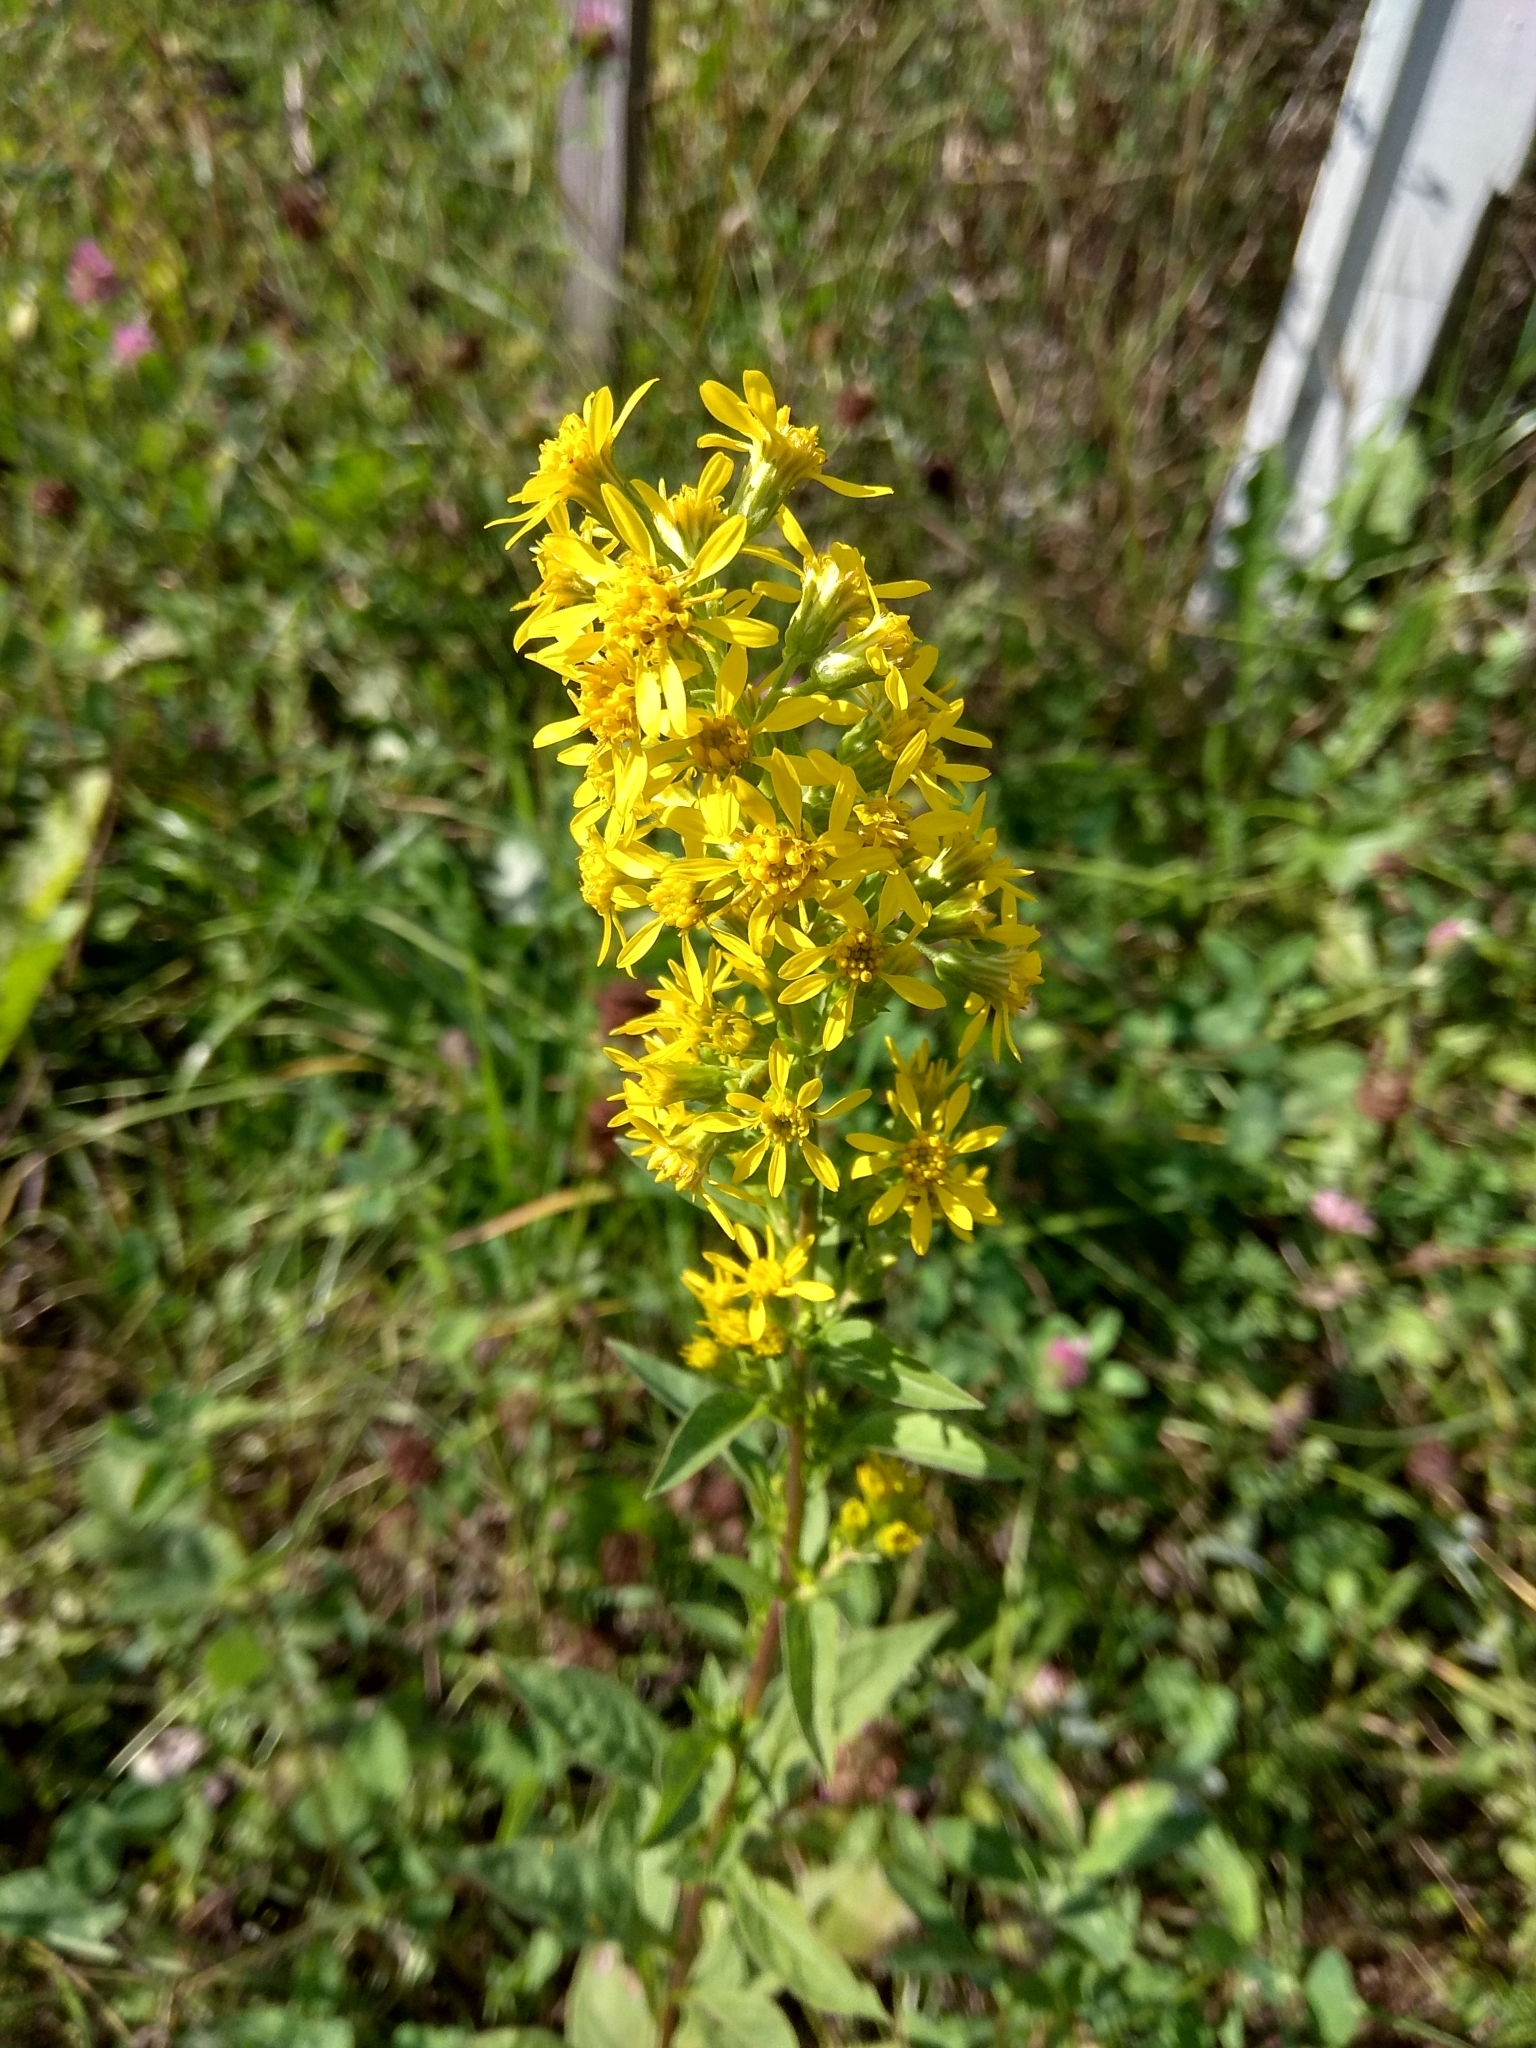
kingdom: Plantae
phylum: Tracheophyta
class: Magnoliopsida
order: Asterales
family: Asteraceae
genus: Solidago
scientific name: Solidago virgaurea
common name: Goldenrod
